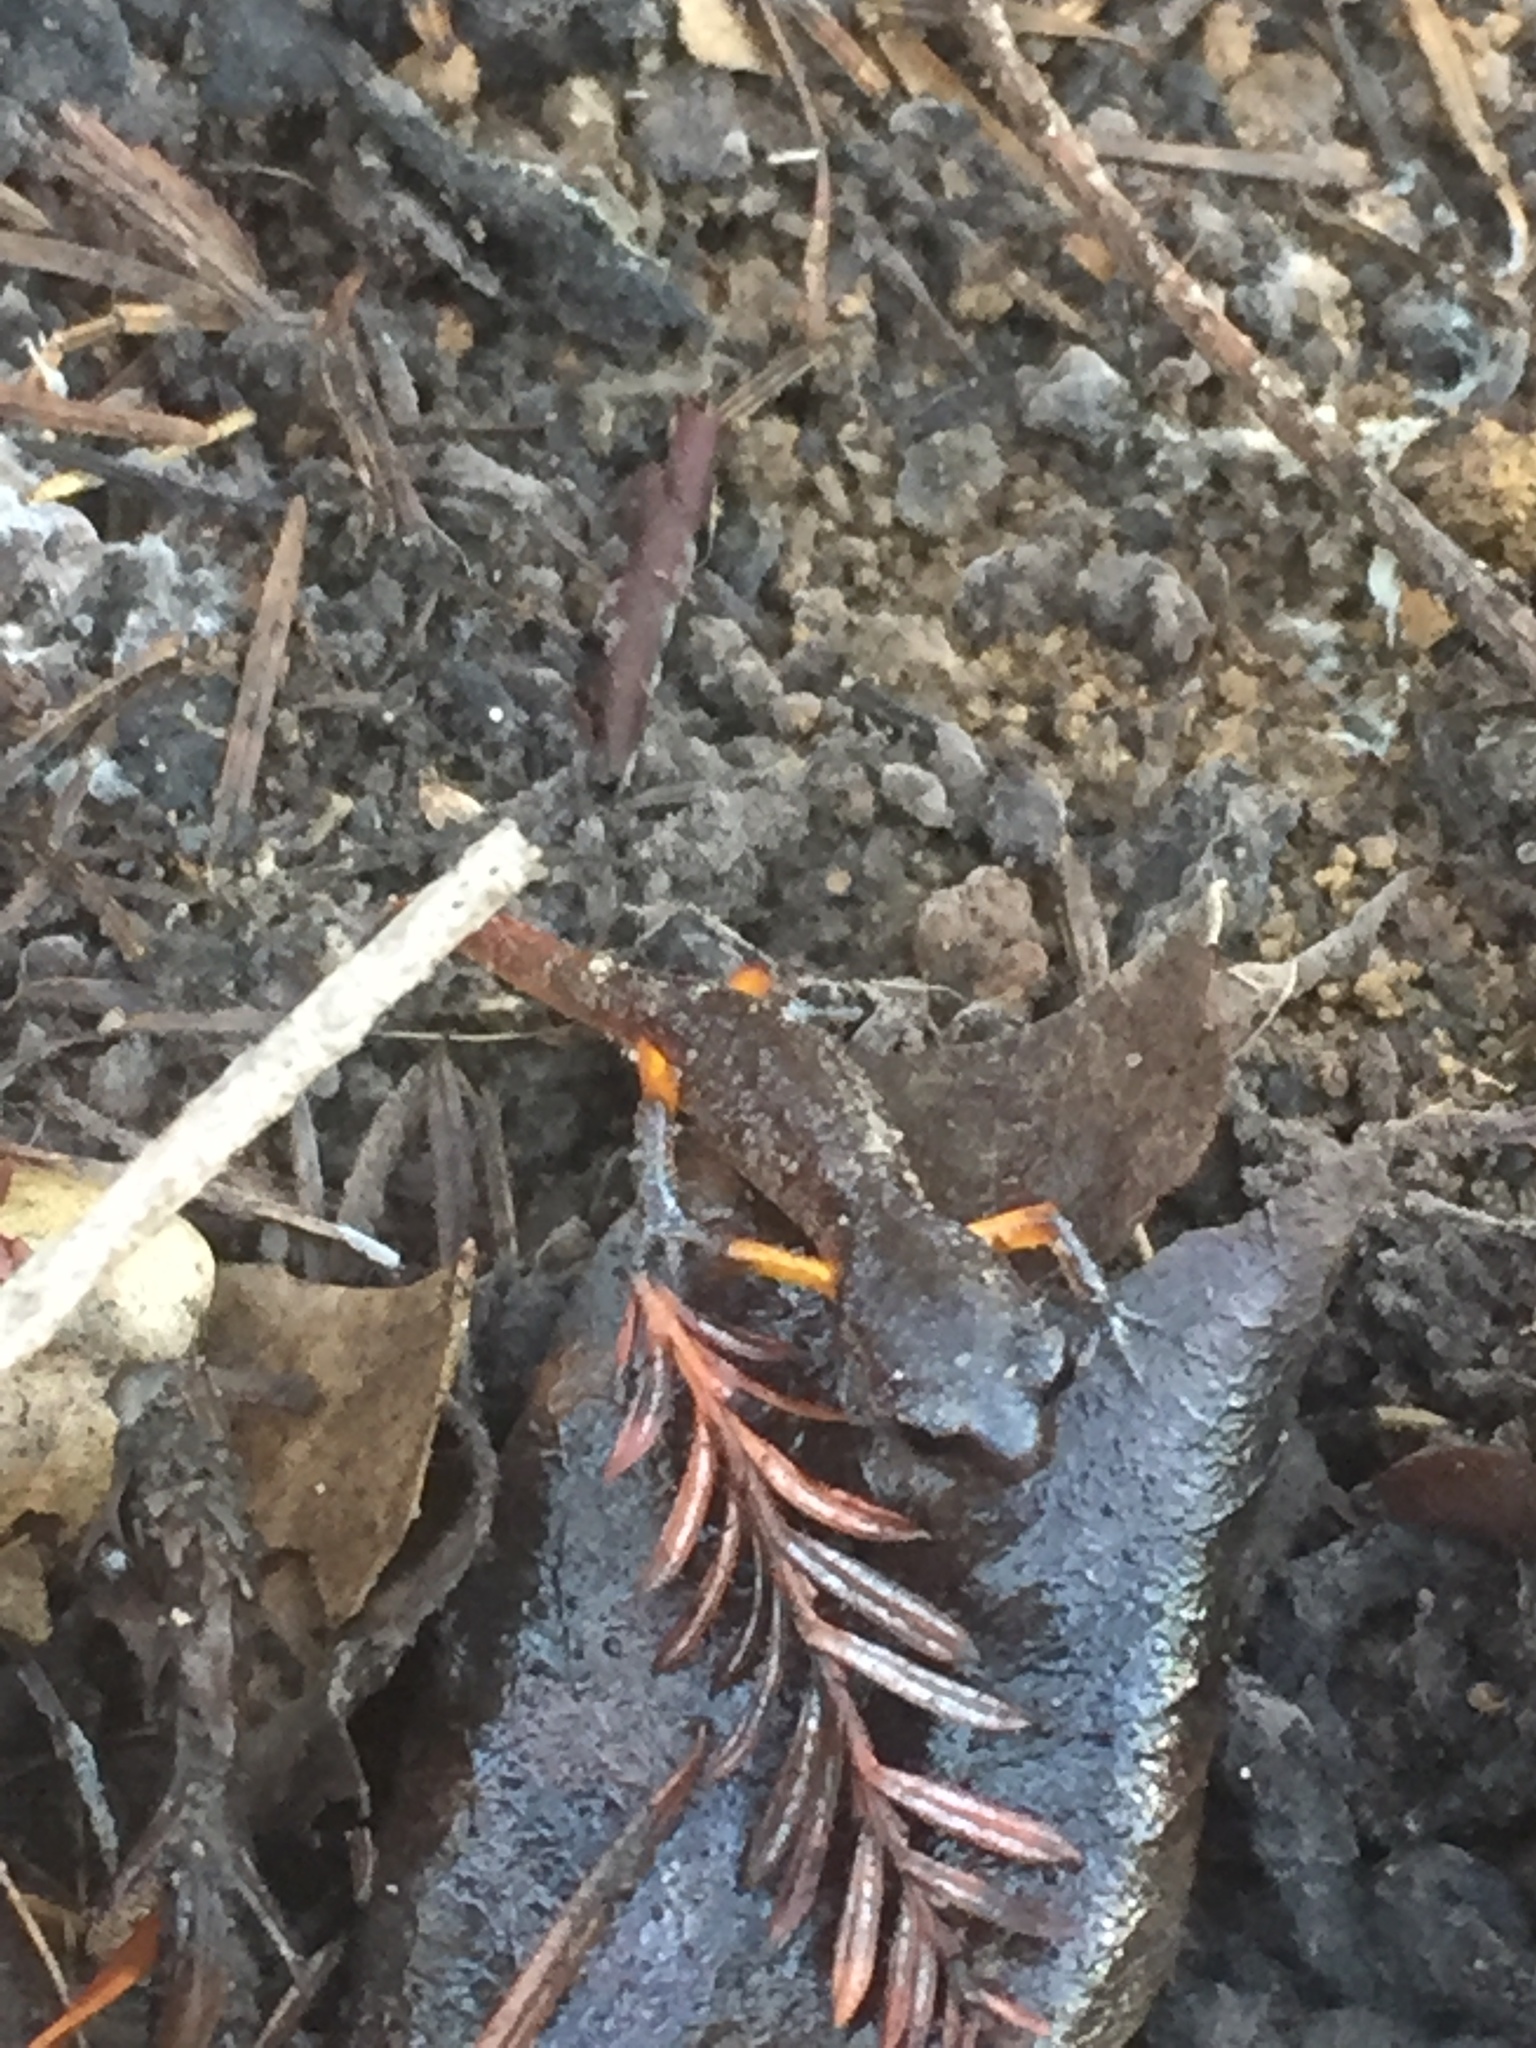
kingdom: Animalia
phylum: Chordata
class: Amphibia
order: Caudata
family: Plethodontidae
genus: Ensatina
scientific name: Ensatina eschscholtzii
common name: Ensatina
